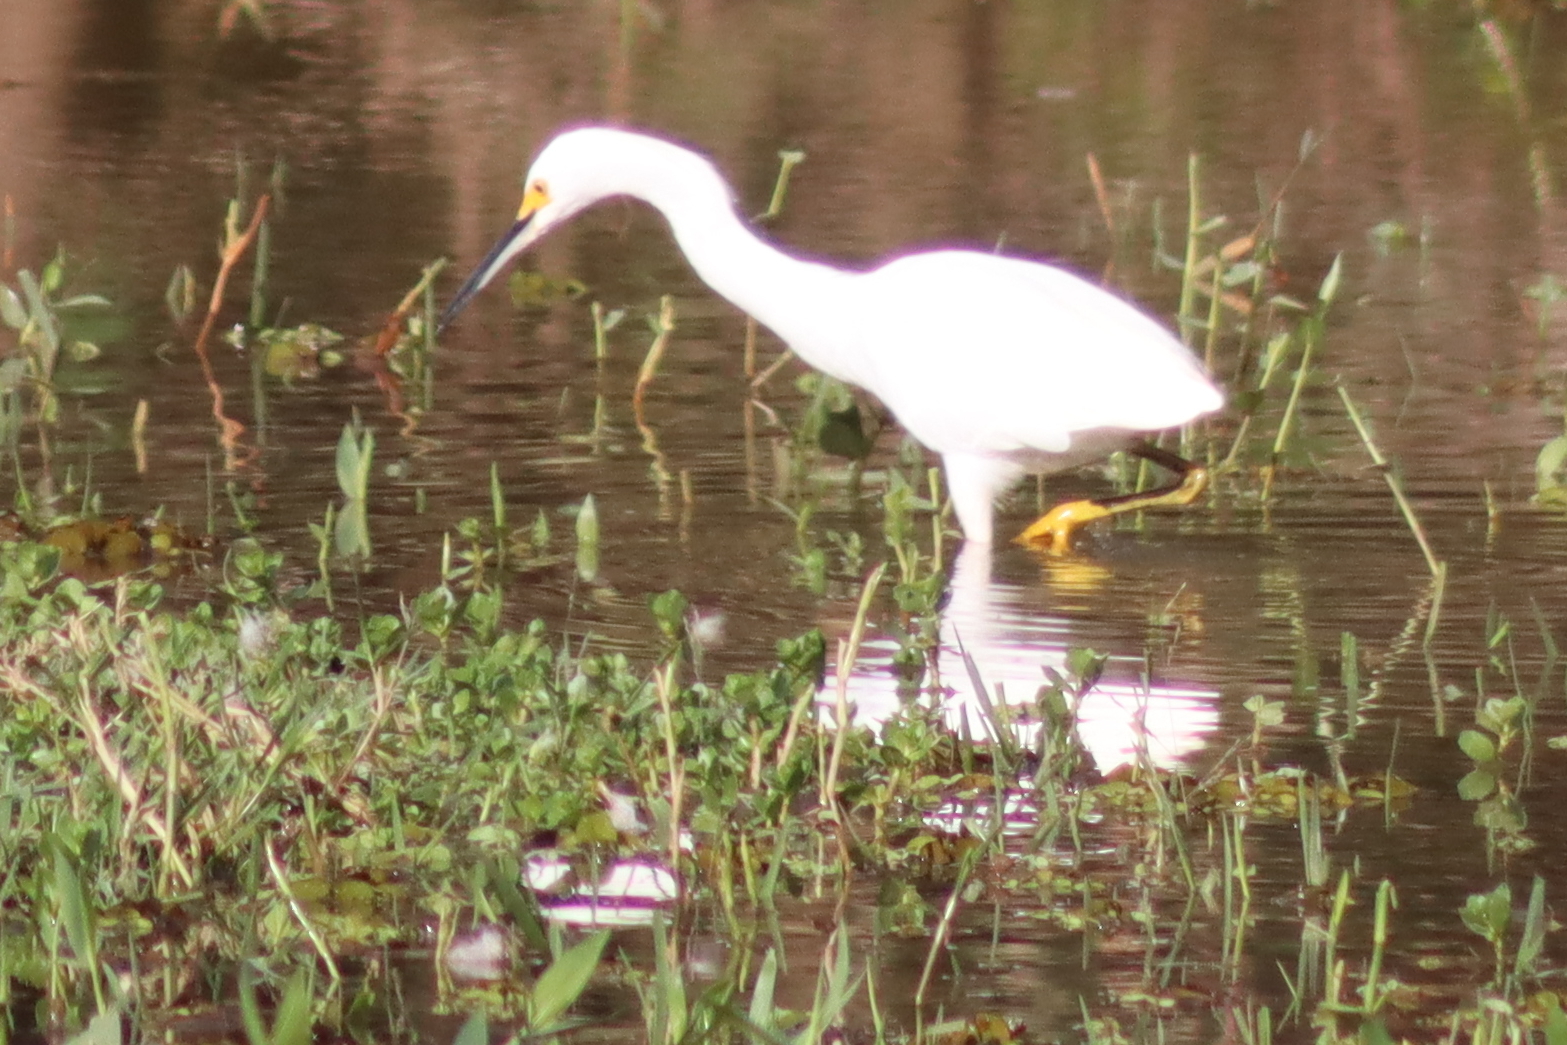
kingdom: Animalia
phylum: Chordata
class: Aves
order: Pelecaniformes
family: Ardeidae
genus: Egretta
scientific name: Egretta thula
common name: Snowy egret
